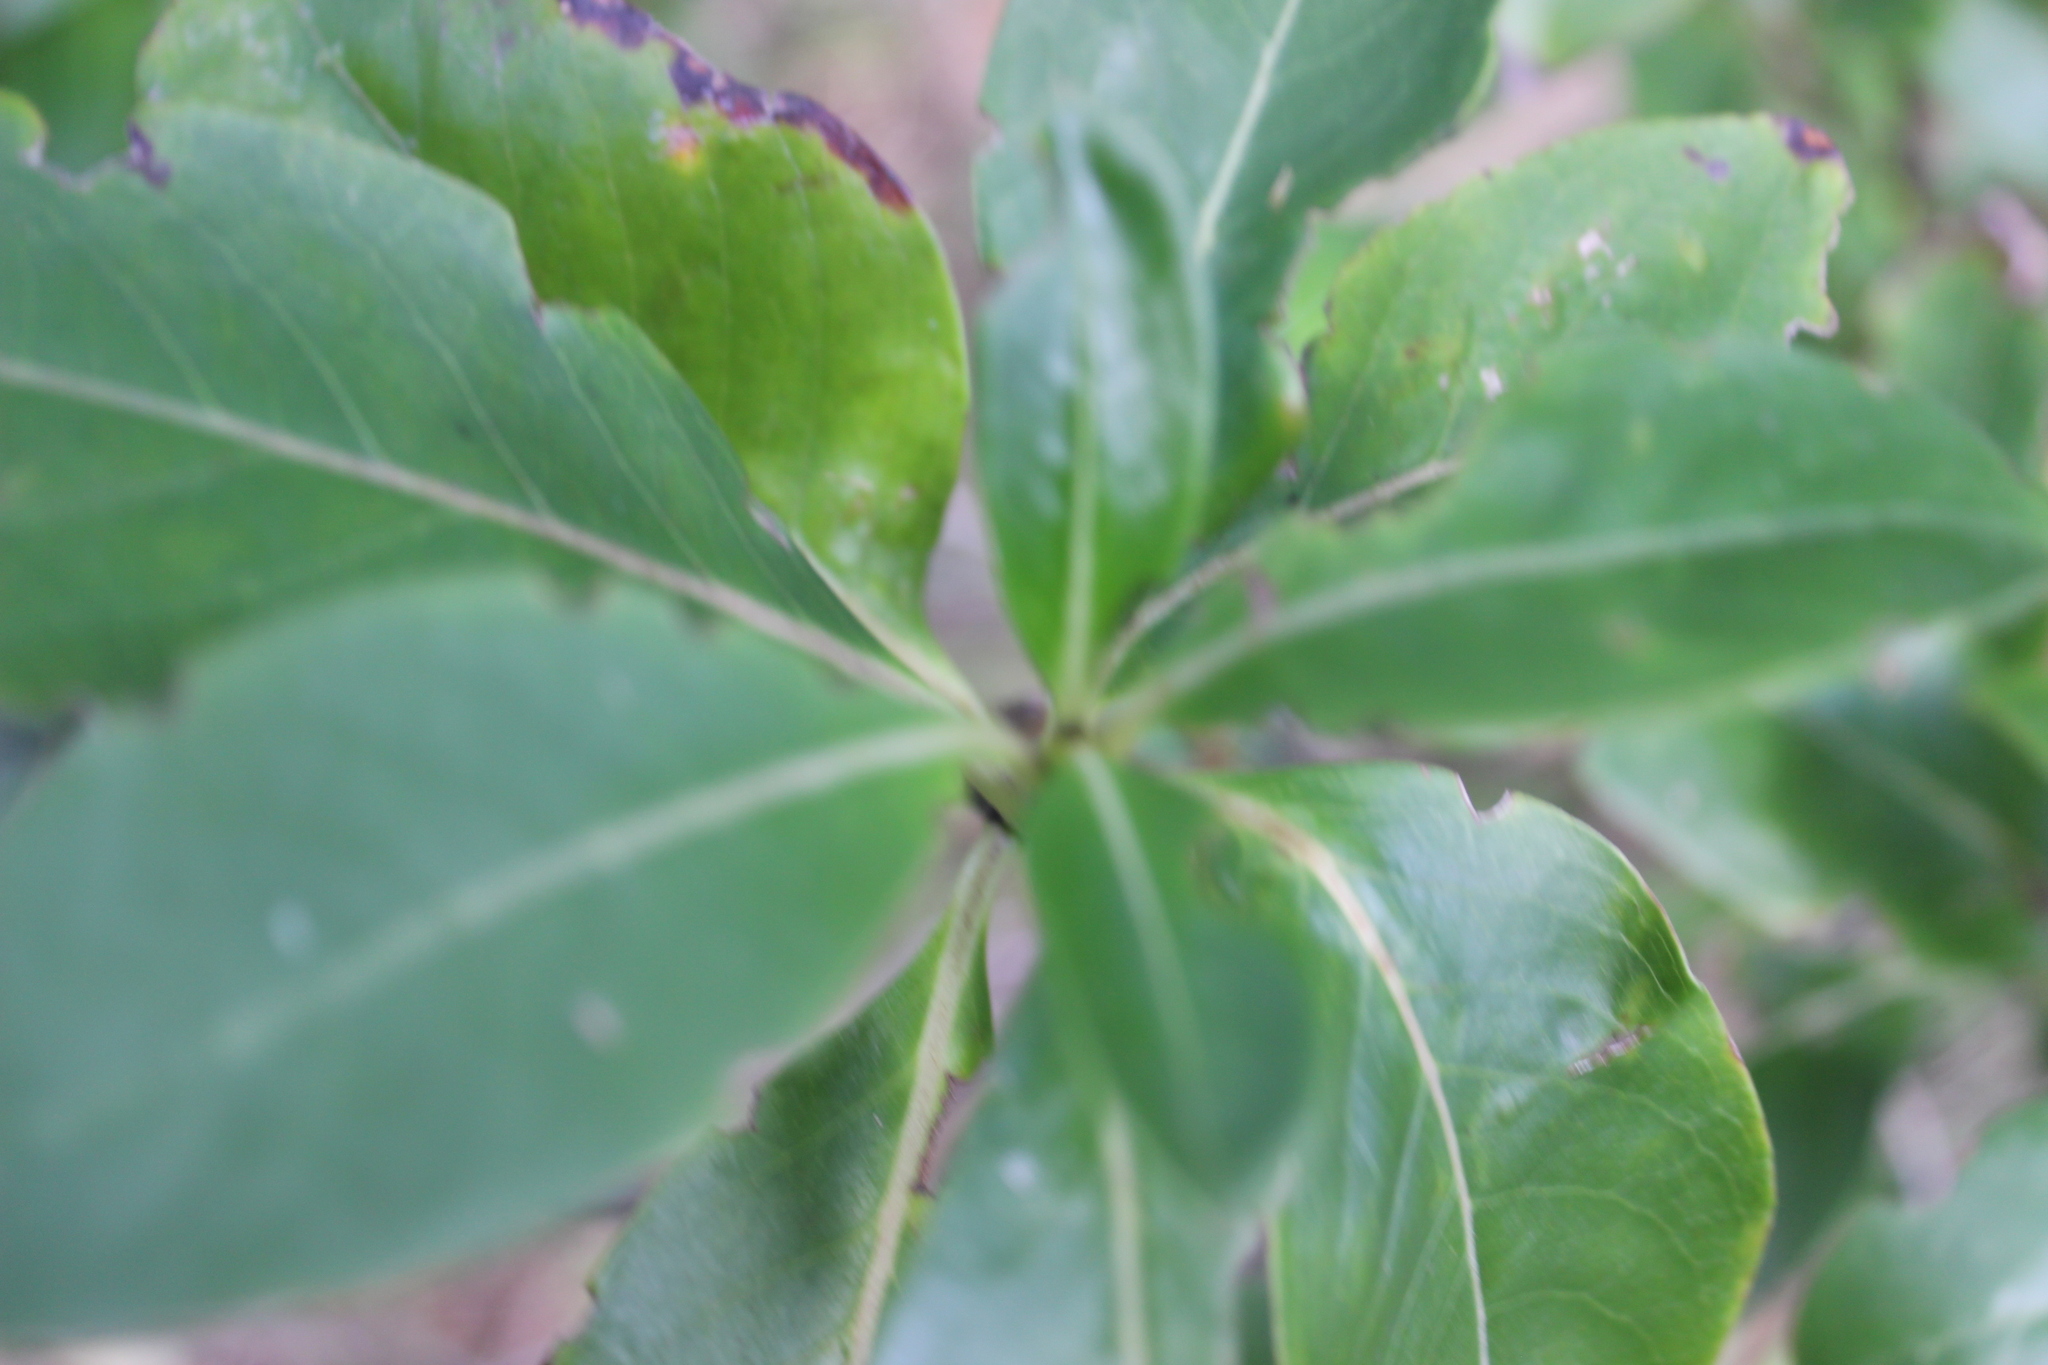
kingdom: Plantae
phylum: Tracheophyta
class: Magnoliopsida
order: Gentianales
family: Rubiaceae
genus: Coprosma
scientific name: Coprosma robusta
